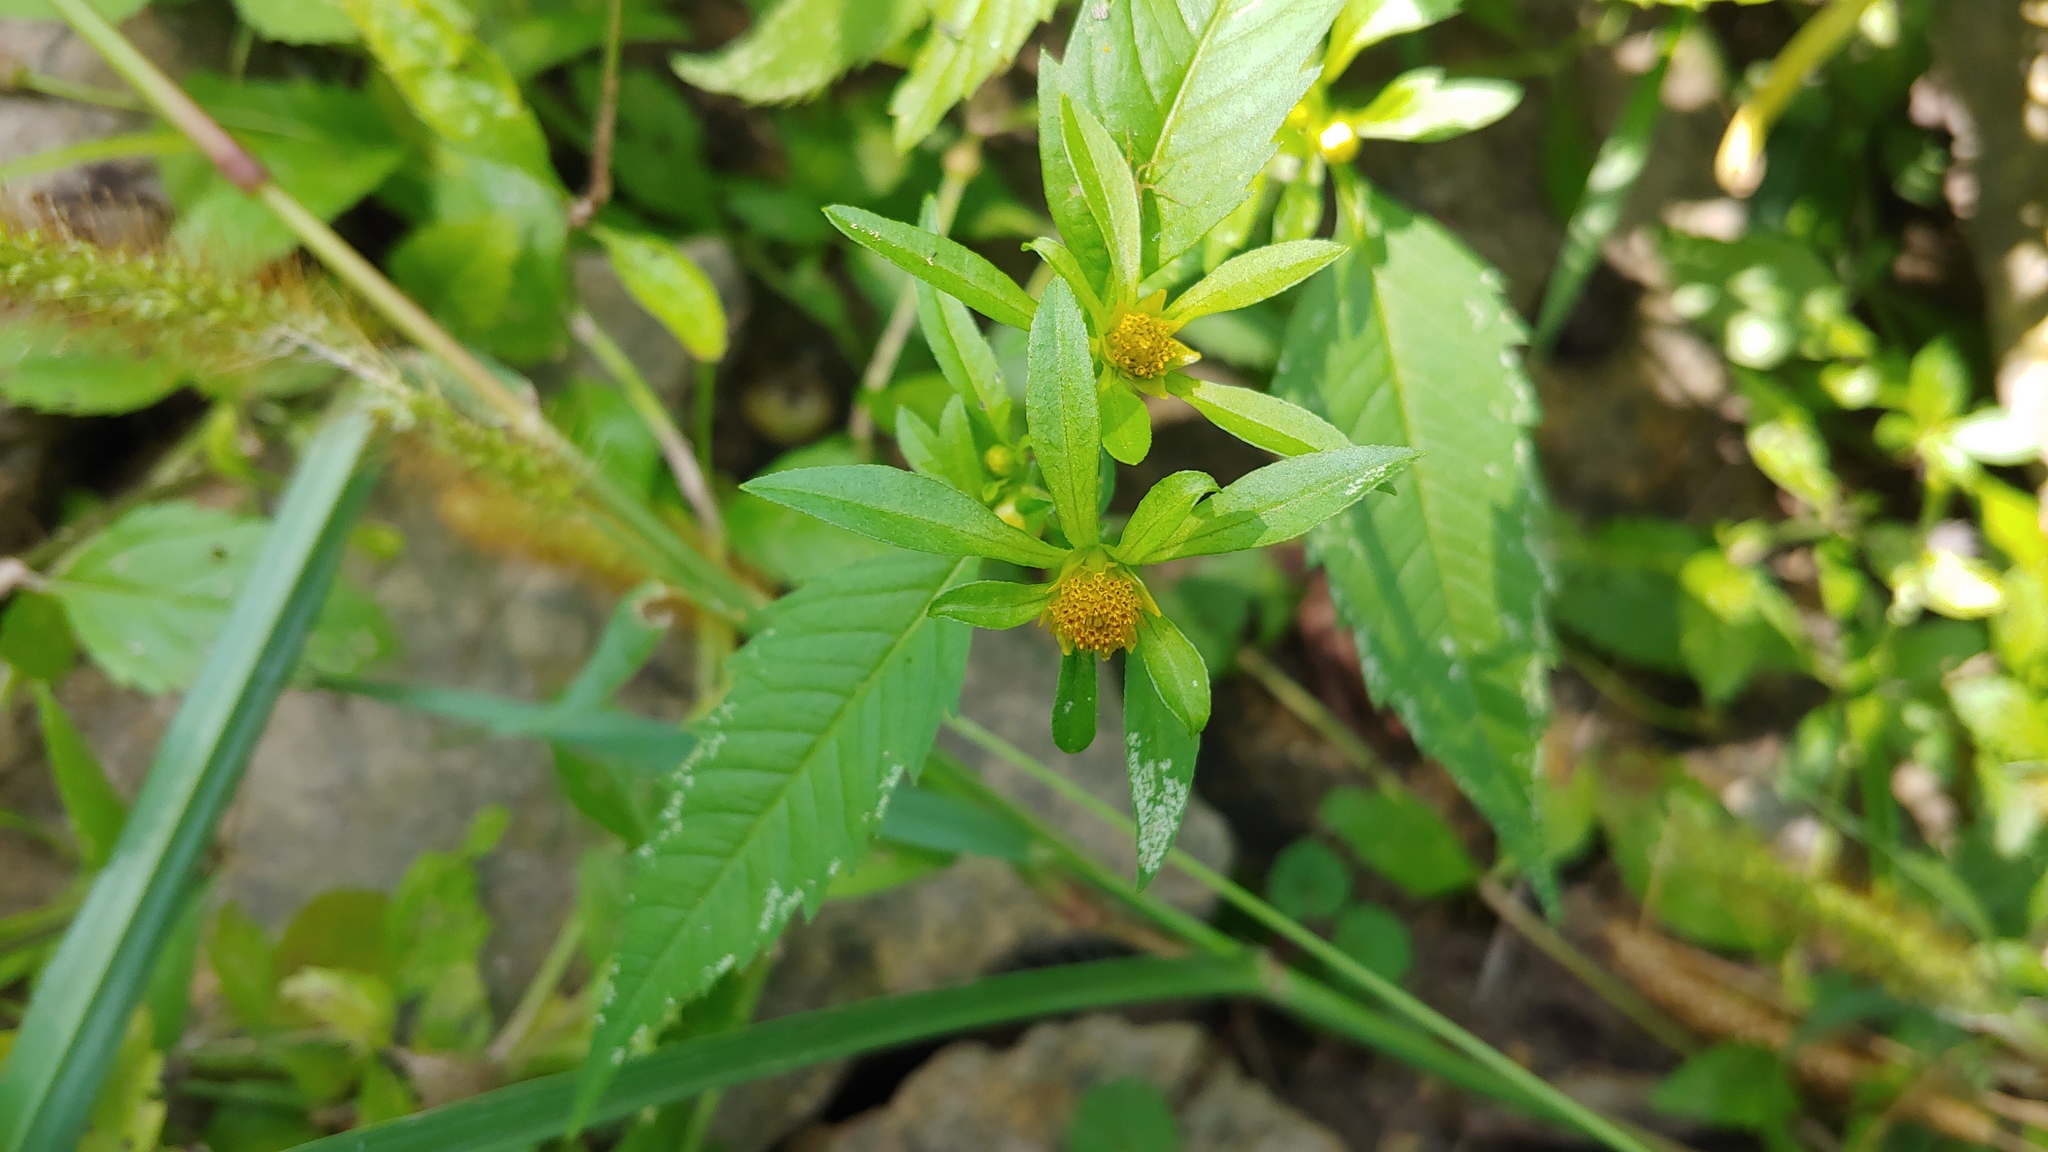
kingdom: Plantae
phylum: Tracheophyta
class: Magnoliopsida
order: Asterales
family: Asteraceae
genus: Bidens
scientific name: Bidens connata
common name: London bur-marigold
